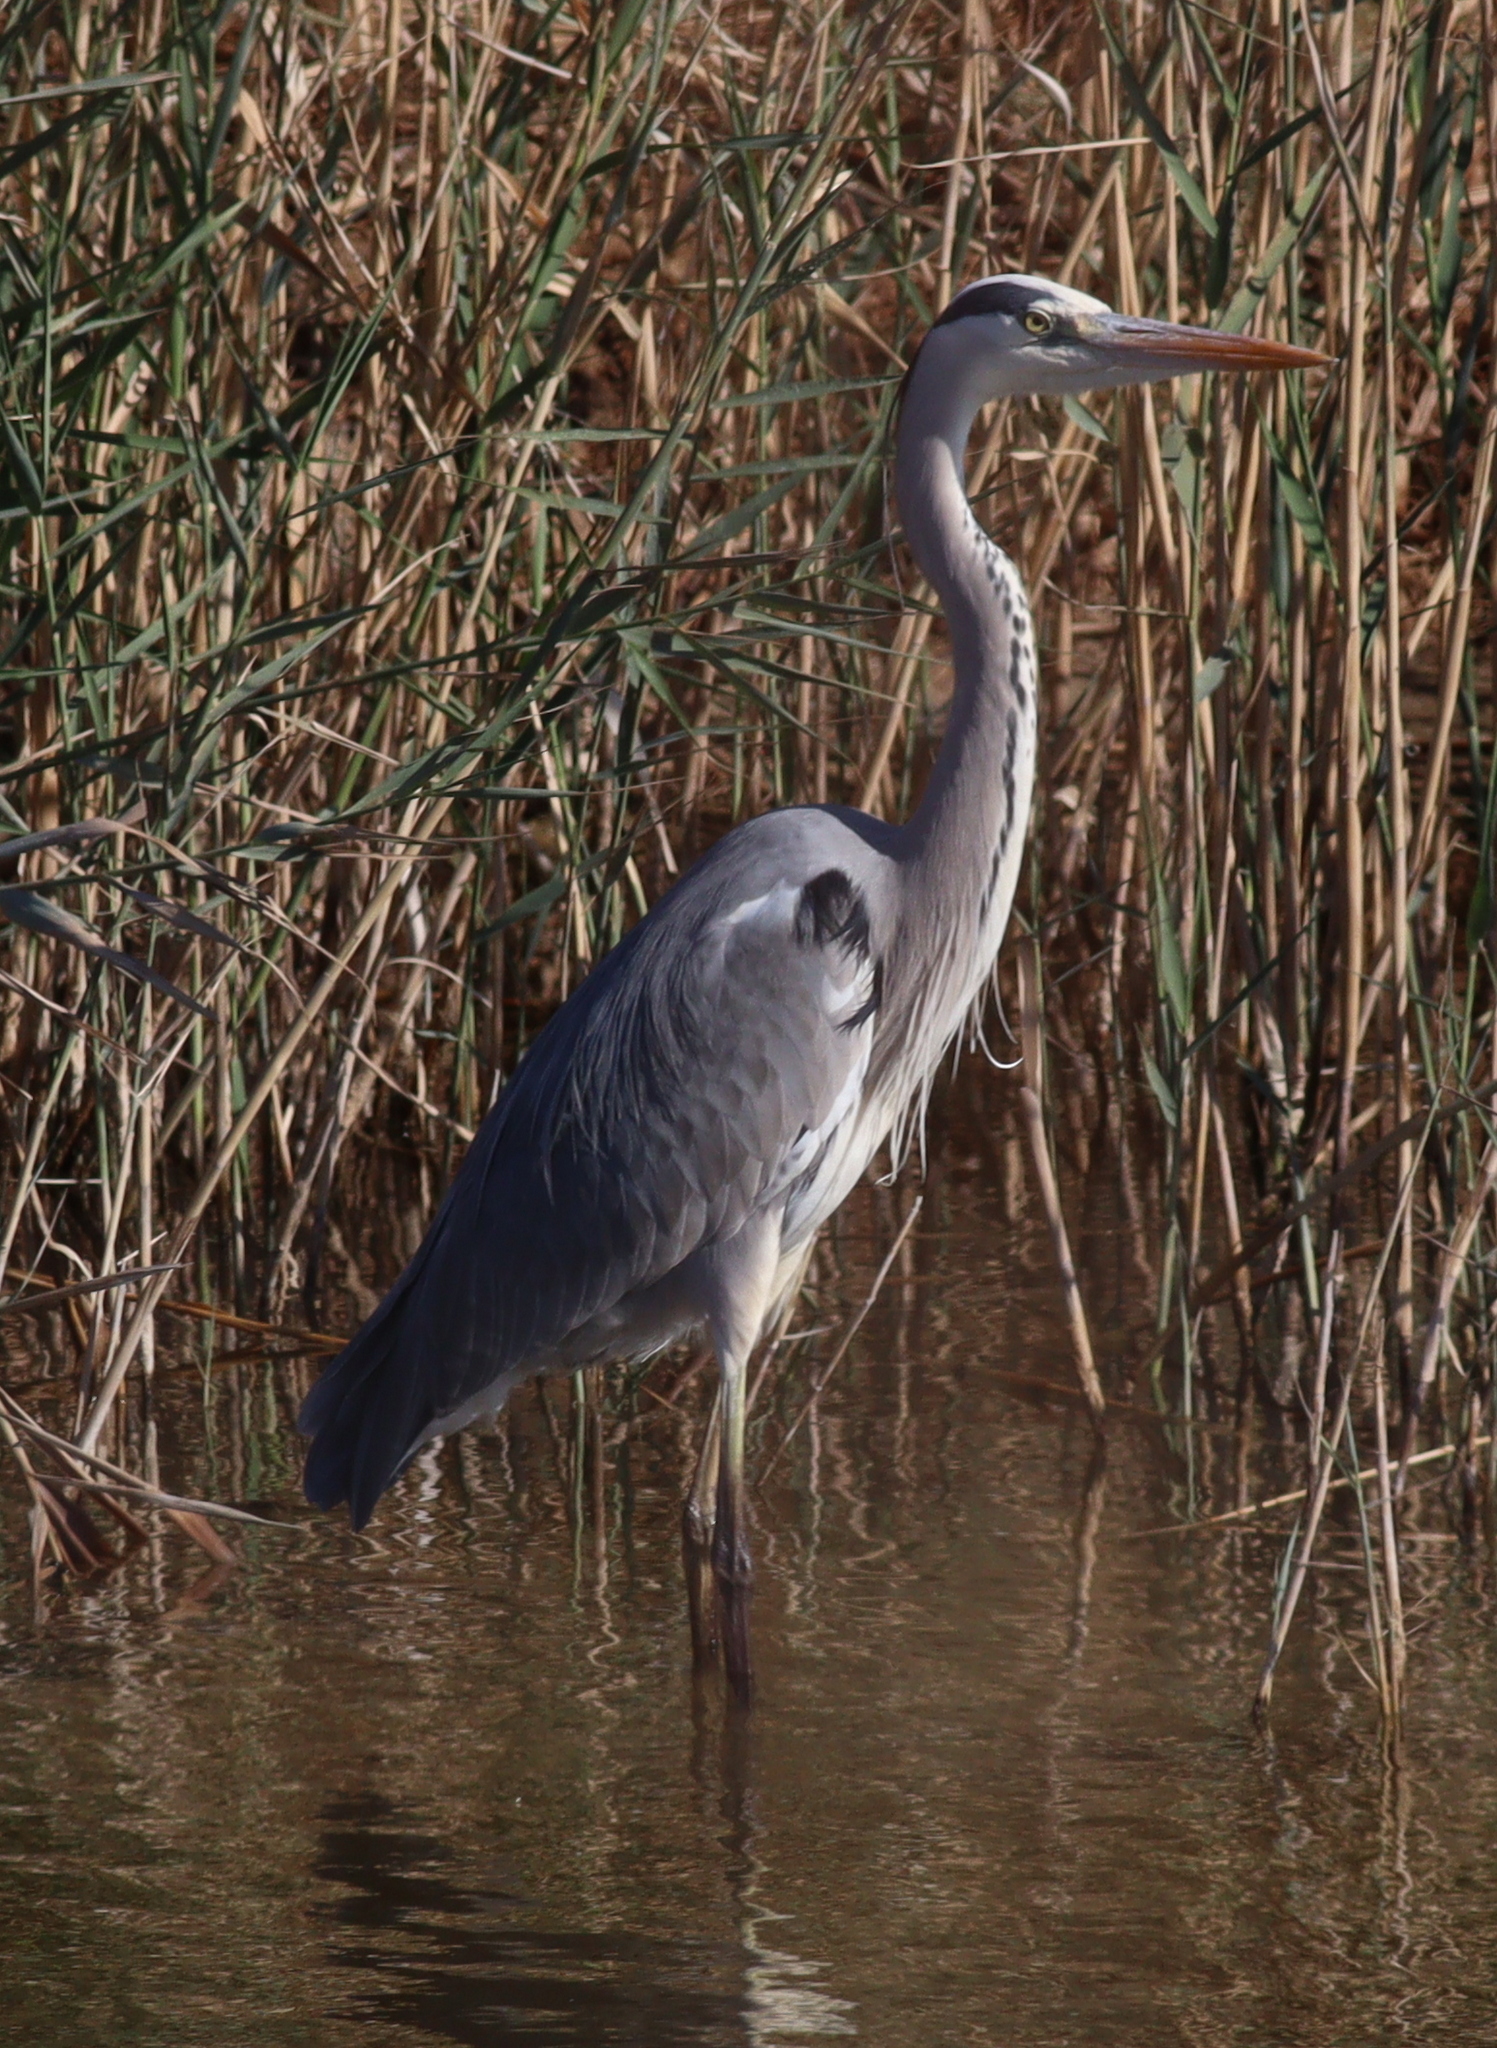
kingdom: Animalia
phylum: Chordata
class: Aves
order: Pelecaniformes
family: Ardeidae
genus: Ardea
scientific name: Ardea cinerea
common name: Grey heron
